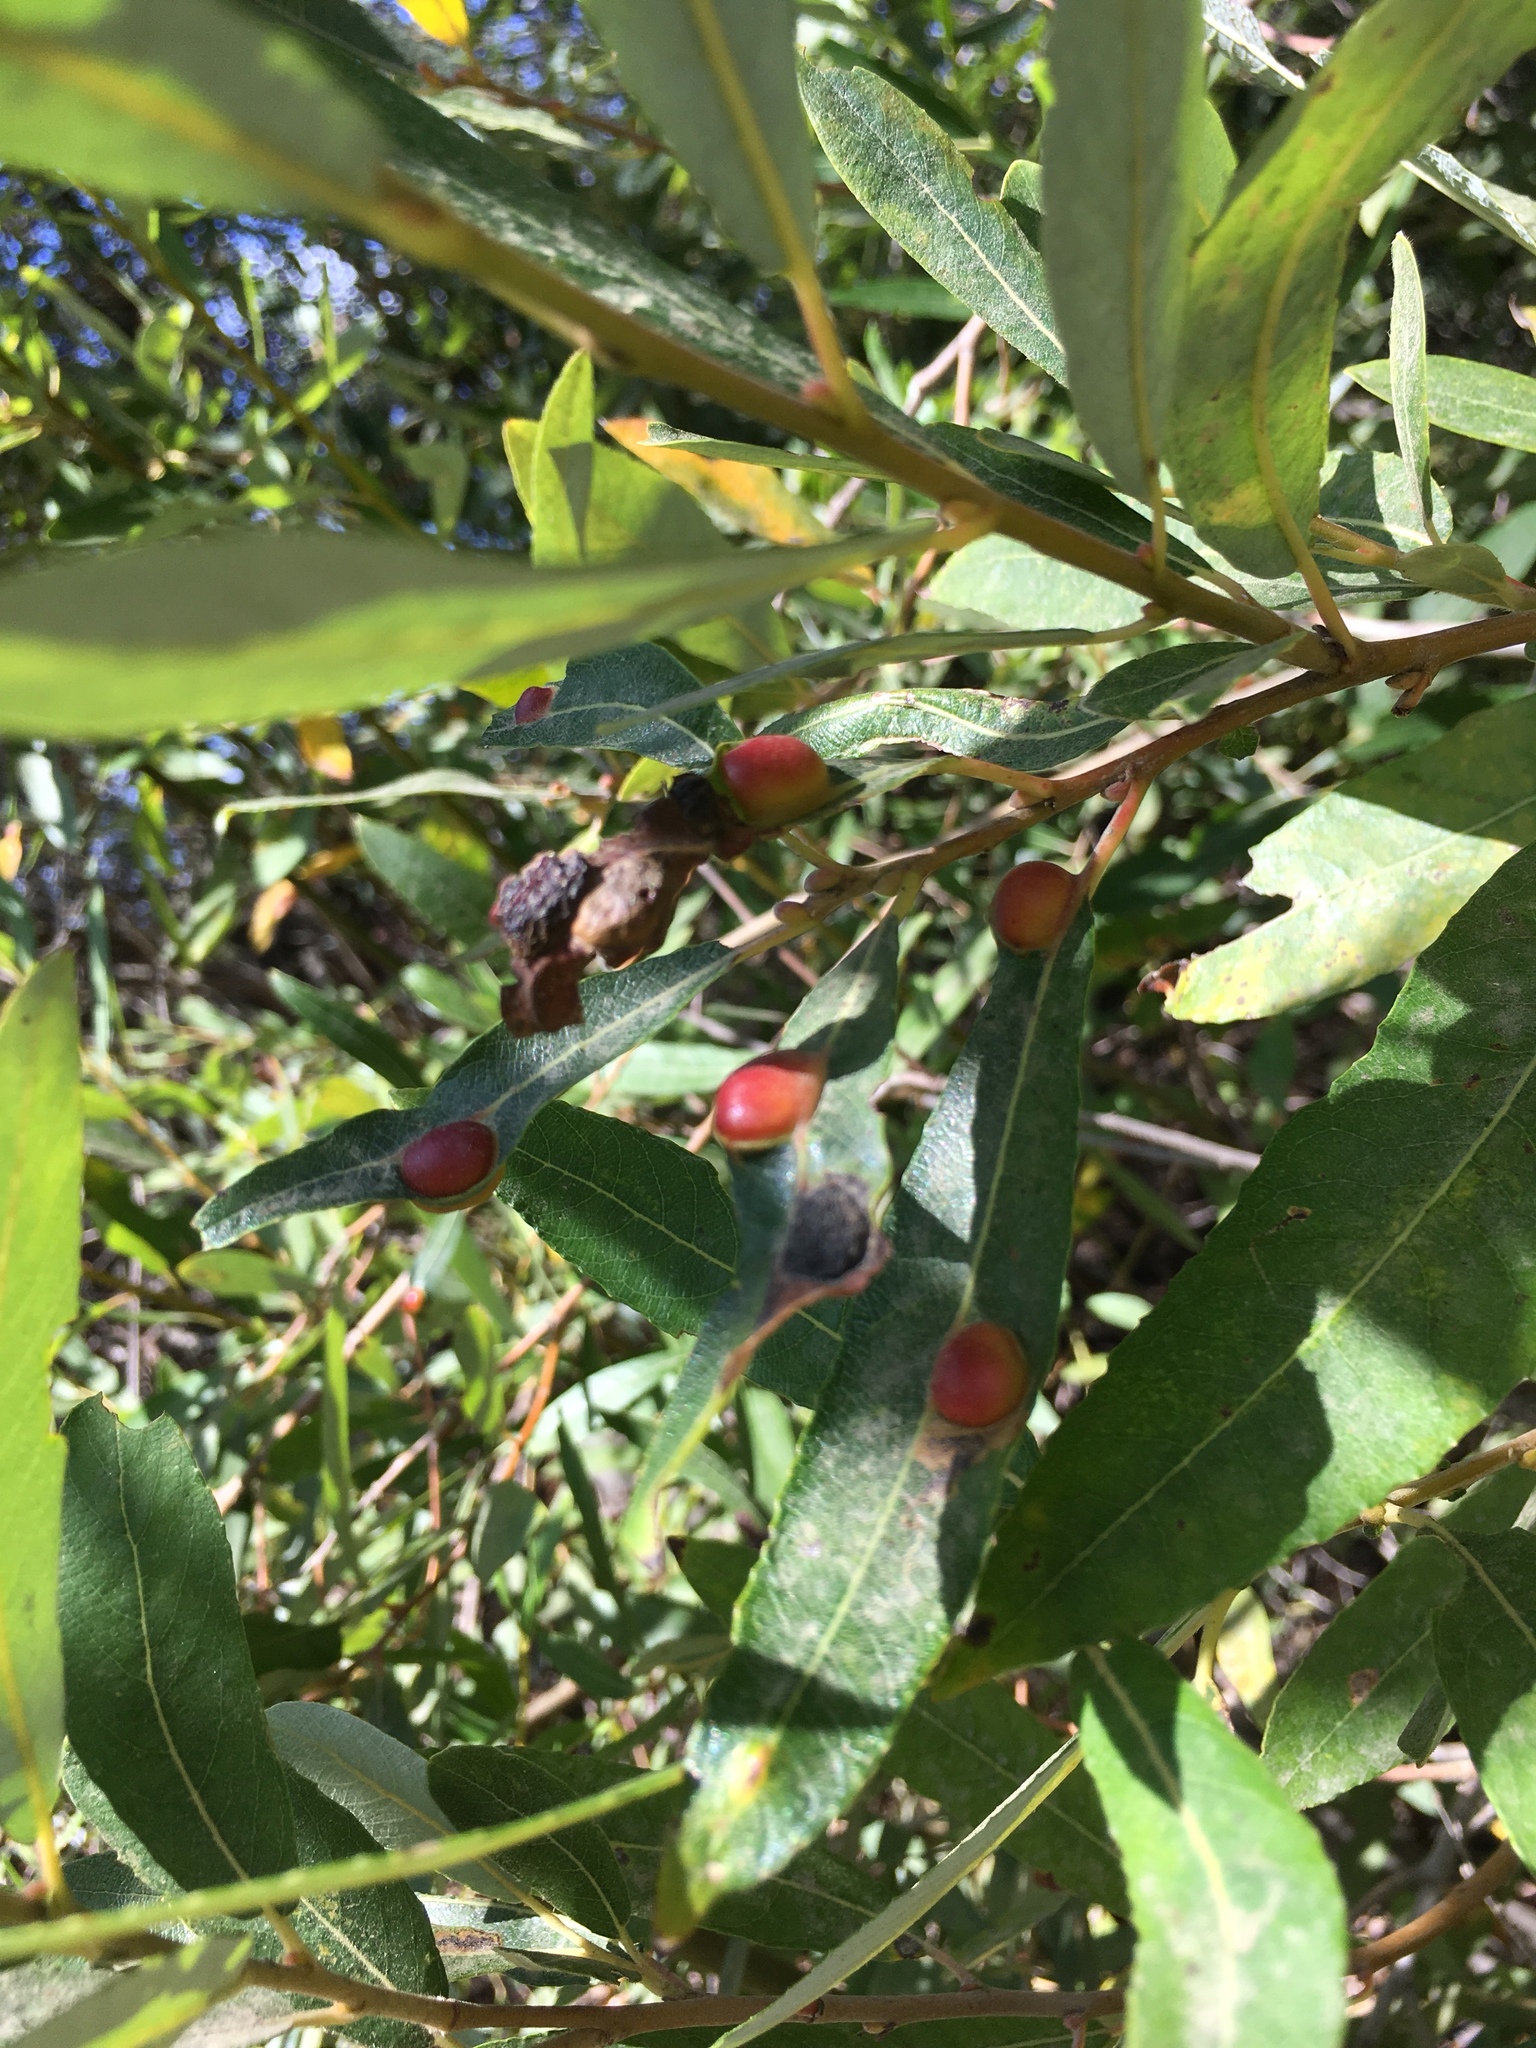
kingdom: Animalia
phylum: Arthropoda
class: Insecta
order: Hymenoptera
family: Tenthredinidae
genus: Euura
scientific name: Euura
